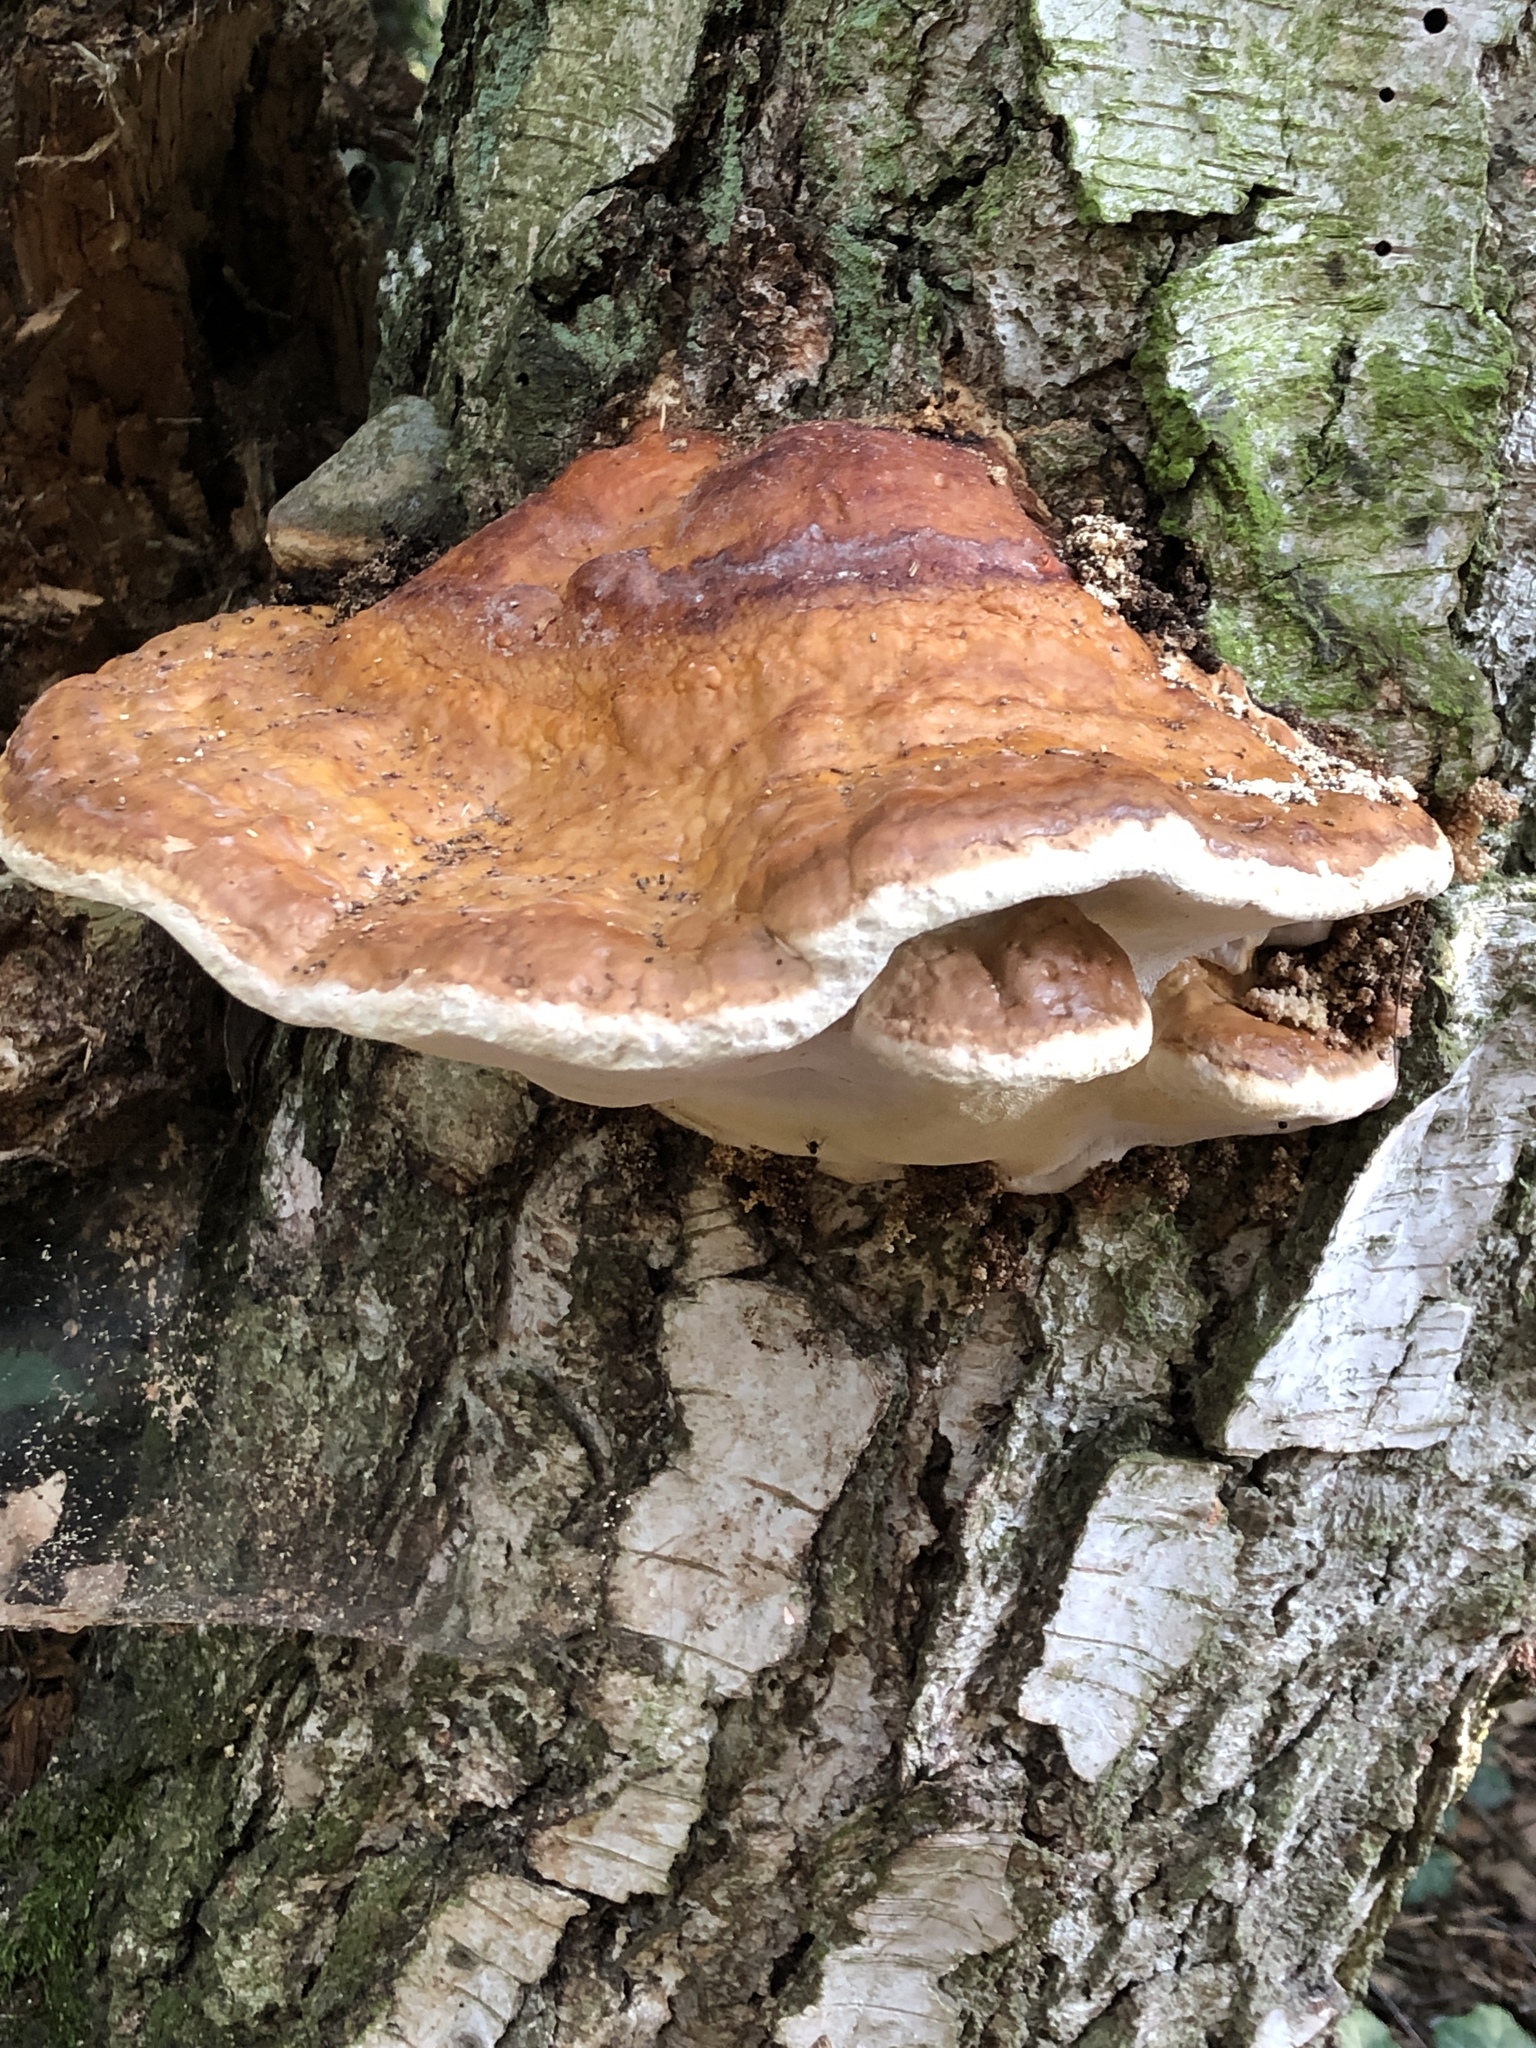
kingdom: Fungi
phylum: Basidiomycota
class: Agaricomycetes
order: Polyporales
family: Fomitopsidaceae
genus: Fomitopsis
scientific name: Fomitopsis pinicola
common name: Red-belted bracket
